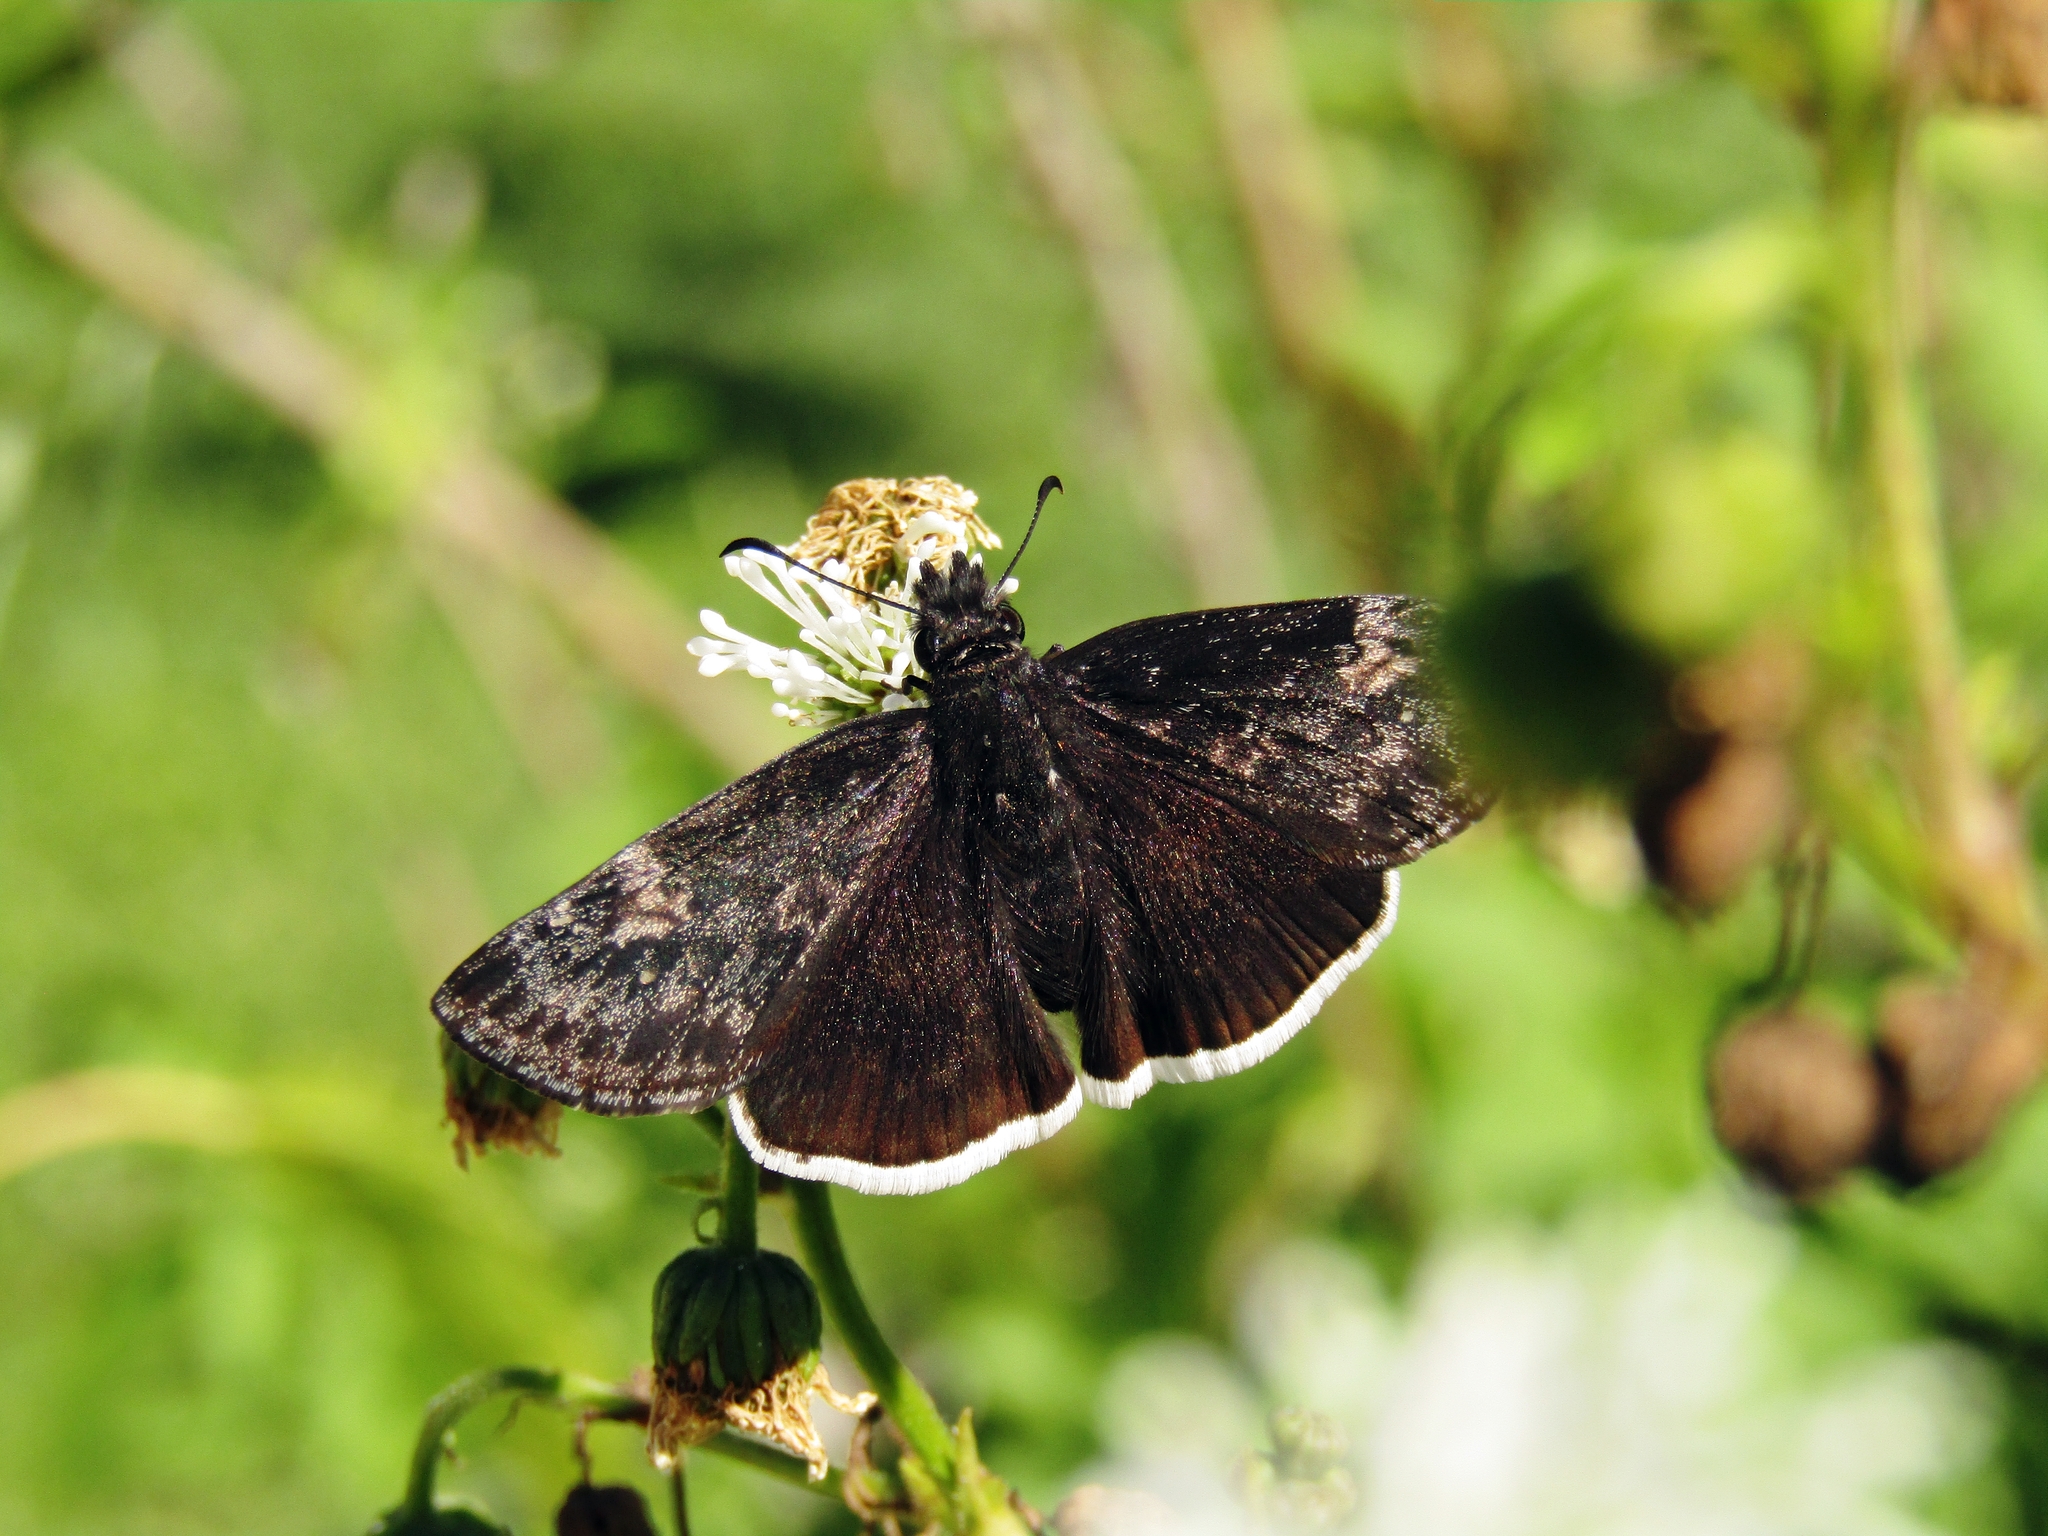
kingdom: Animalia
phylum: Arthropoda
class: Insecta
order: Lepidoptera
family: Hesperiidae
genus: Erynnis
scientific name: Erynnis funeralis
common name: Funereal duskywing
